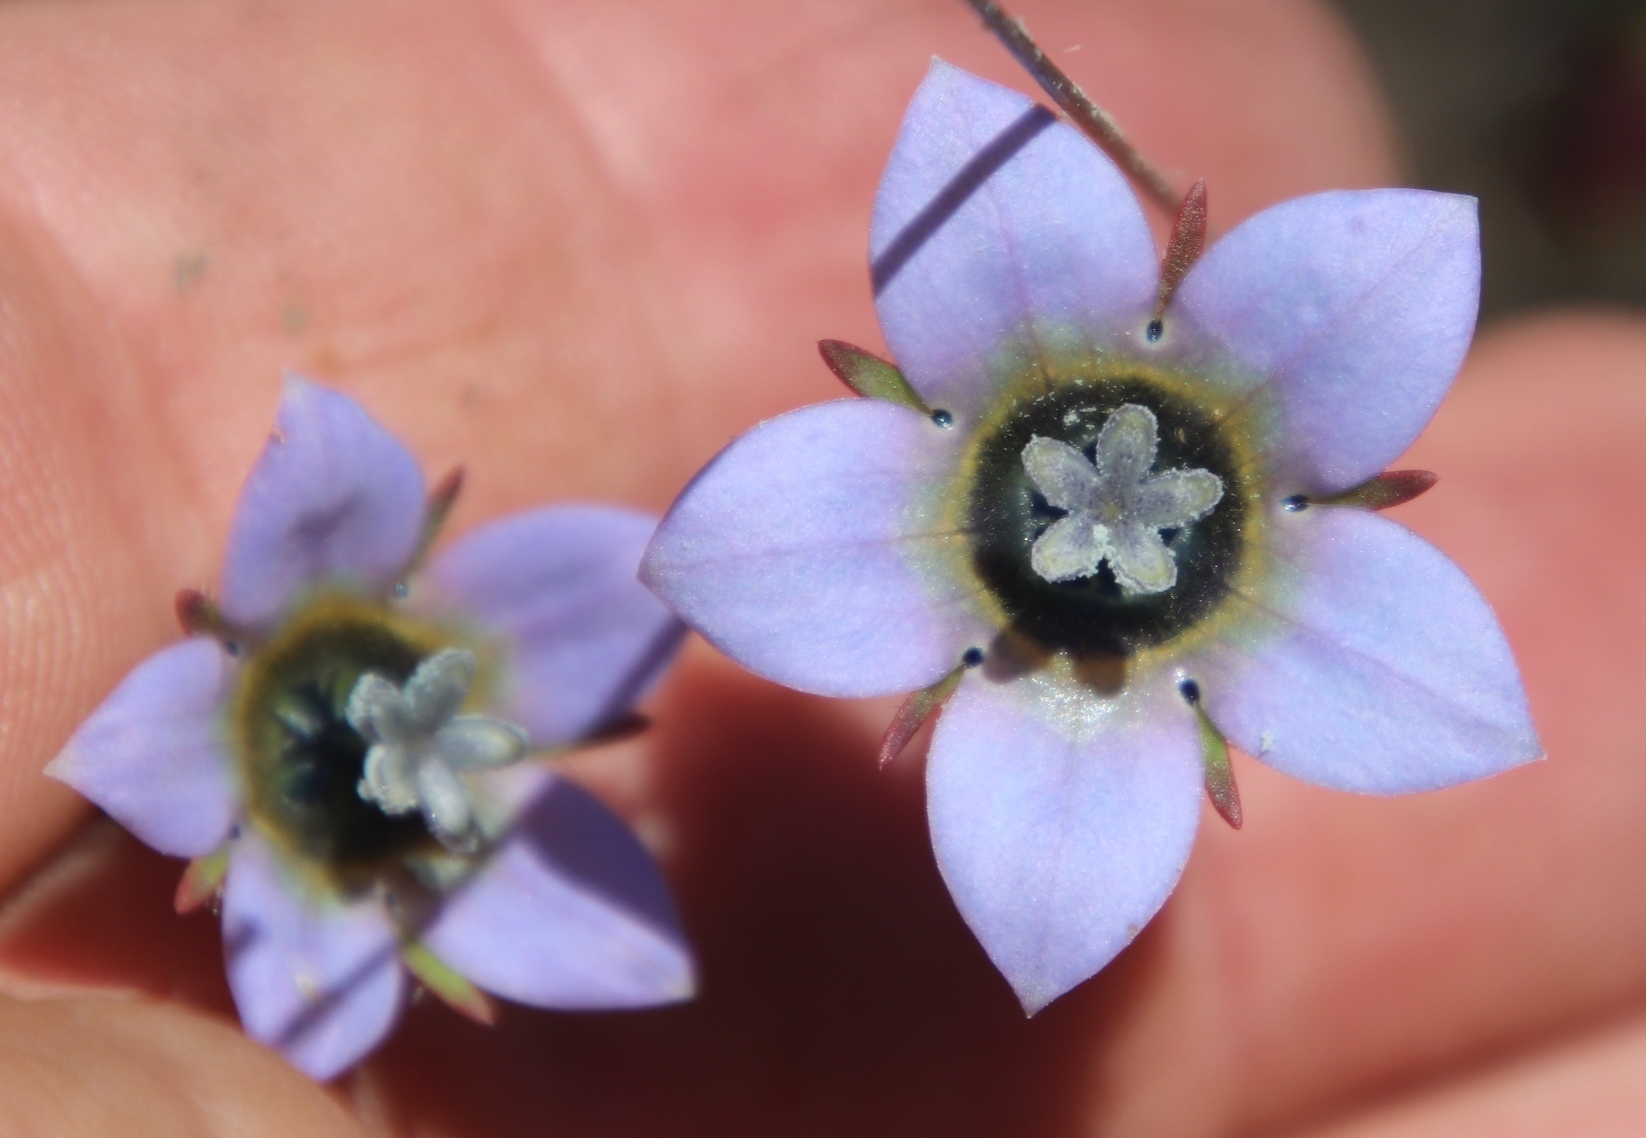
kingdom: Plantae
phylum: Tracheophyta
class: Magnoliopsida
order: Asterales
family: Campanulaceae
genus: Wahlenbergia
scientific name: Wahlenbergia capensis
